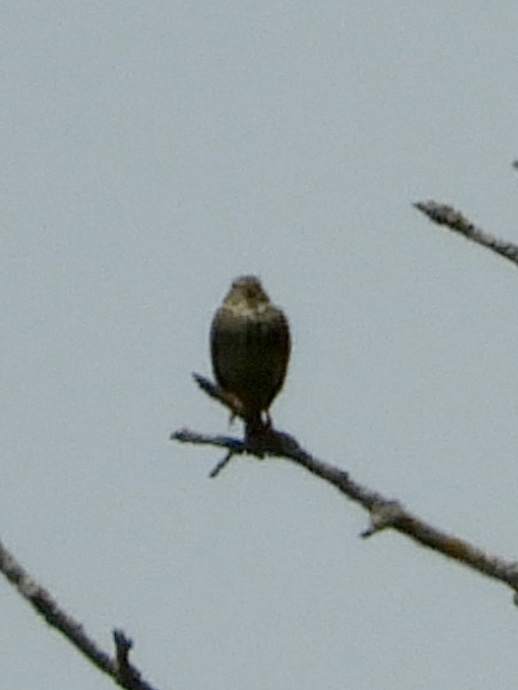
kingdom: Animalia
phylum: Chordata
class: Aves
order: Passeriformes
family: Emberizidae
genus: Emberiza
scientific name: Emberiza calandra
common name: Corn bunting
